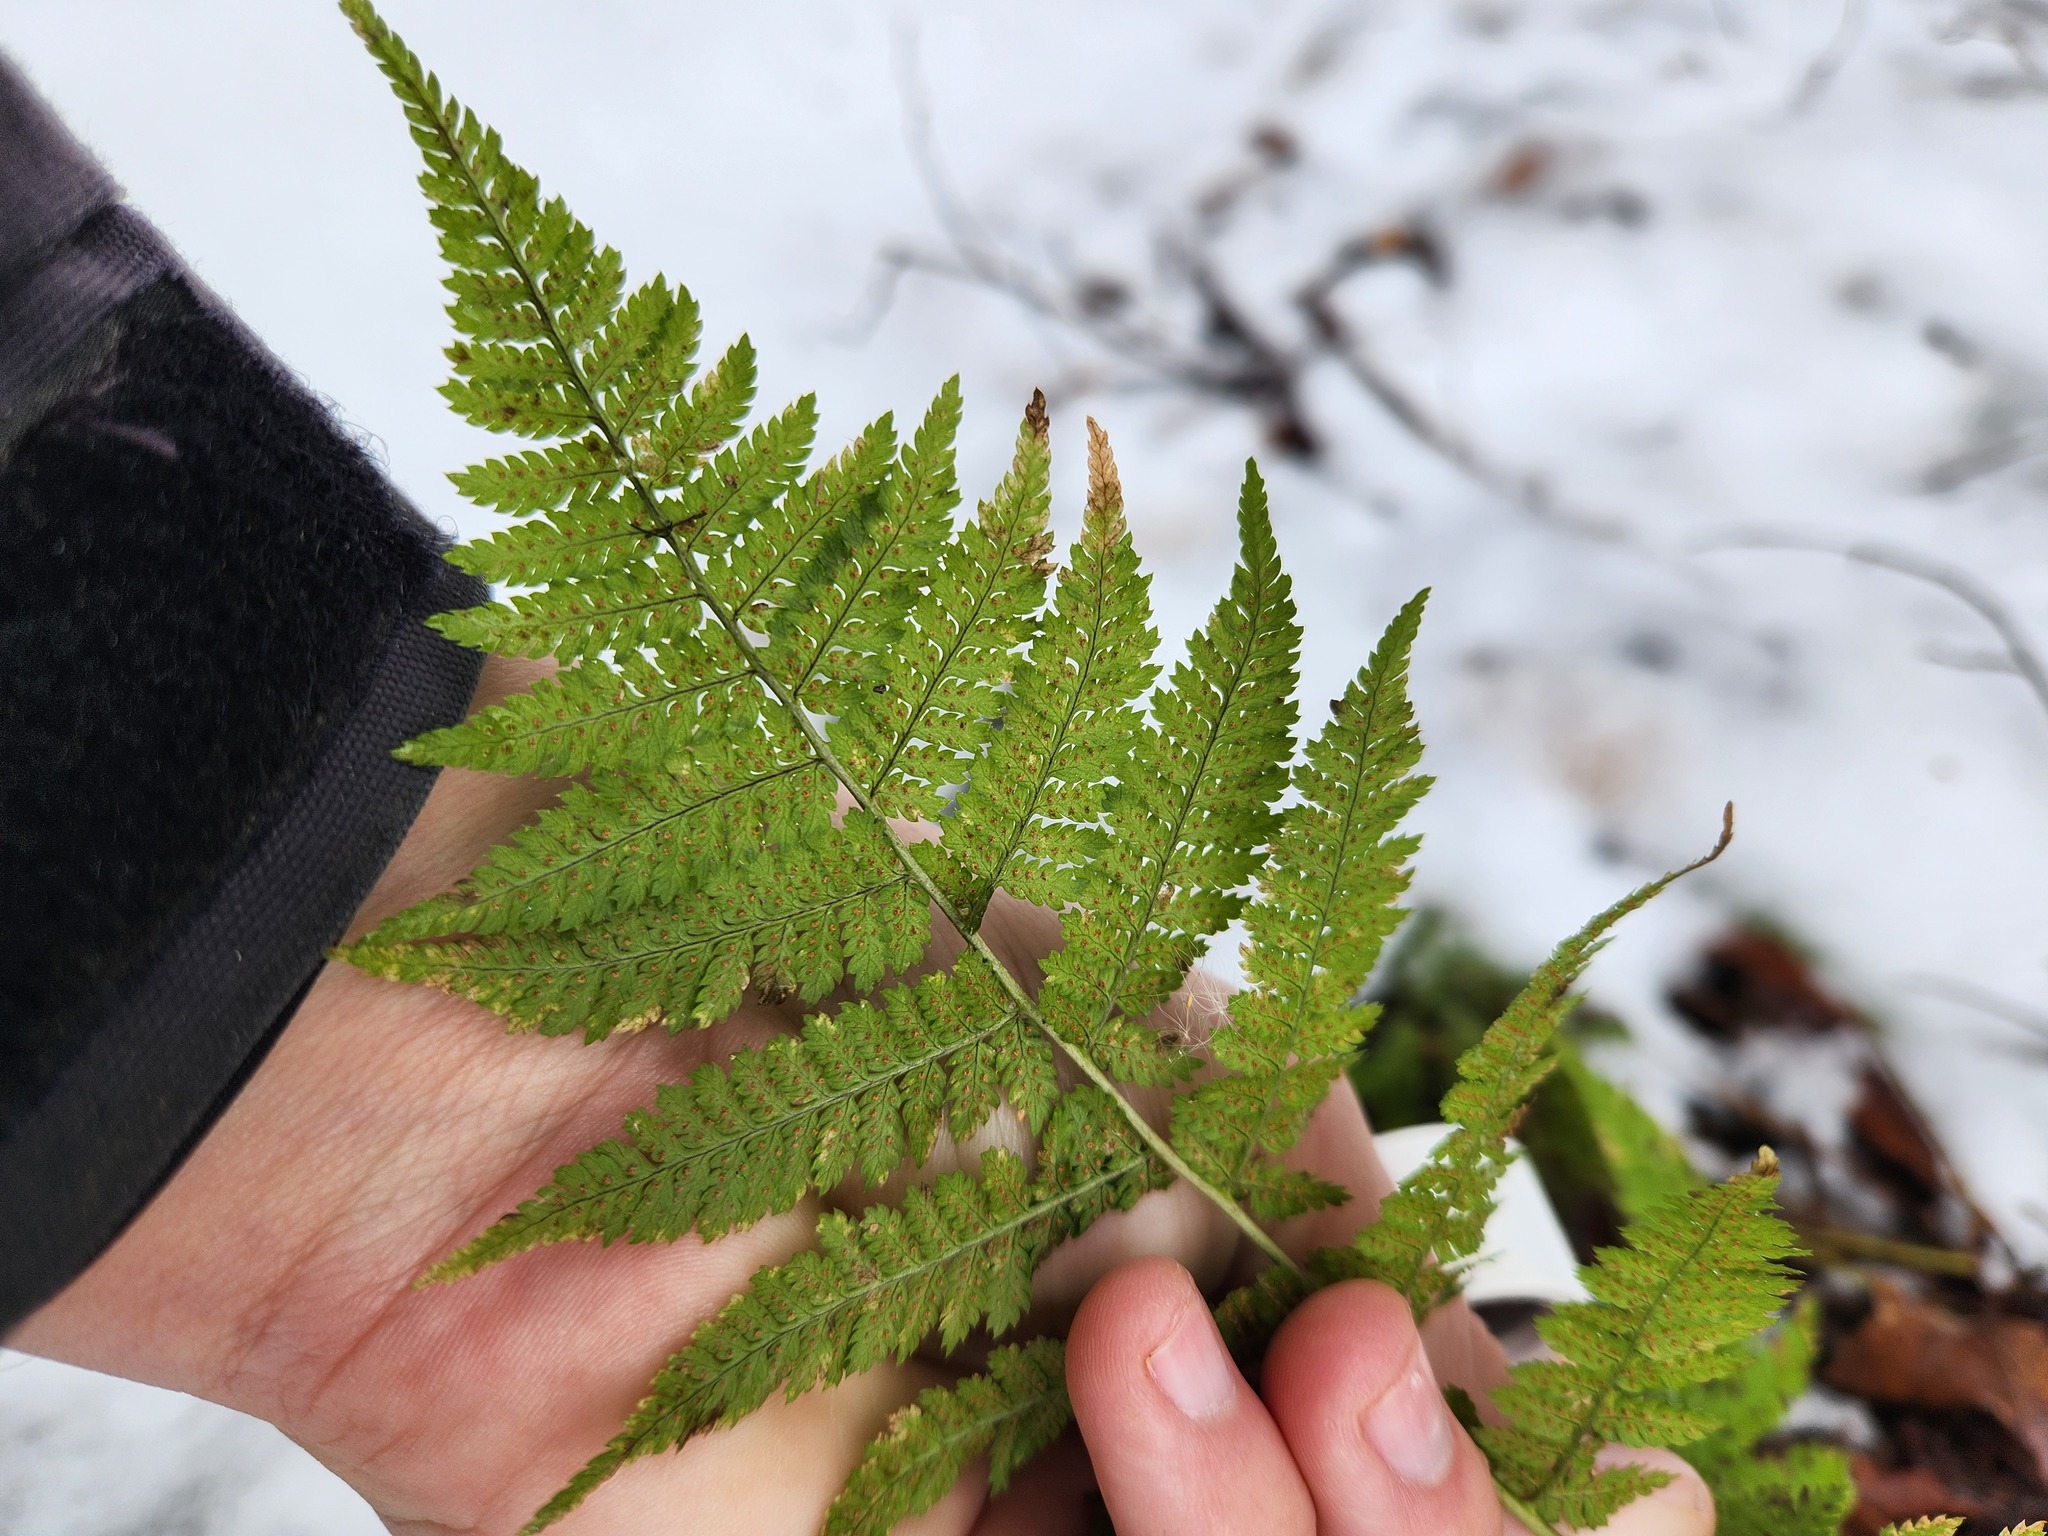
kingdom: Plantae
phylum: Tracheophyta
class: Polypodiopsida
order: Polypodiales
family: Dryopteridaceae
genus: Dryopteris
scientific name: Dryopteris carthusiana
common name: Narrow buckler-fern
